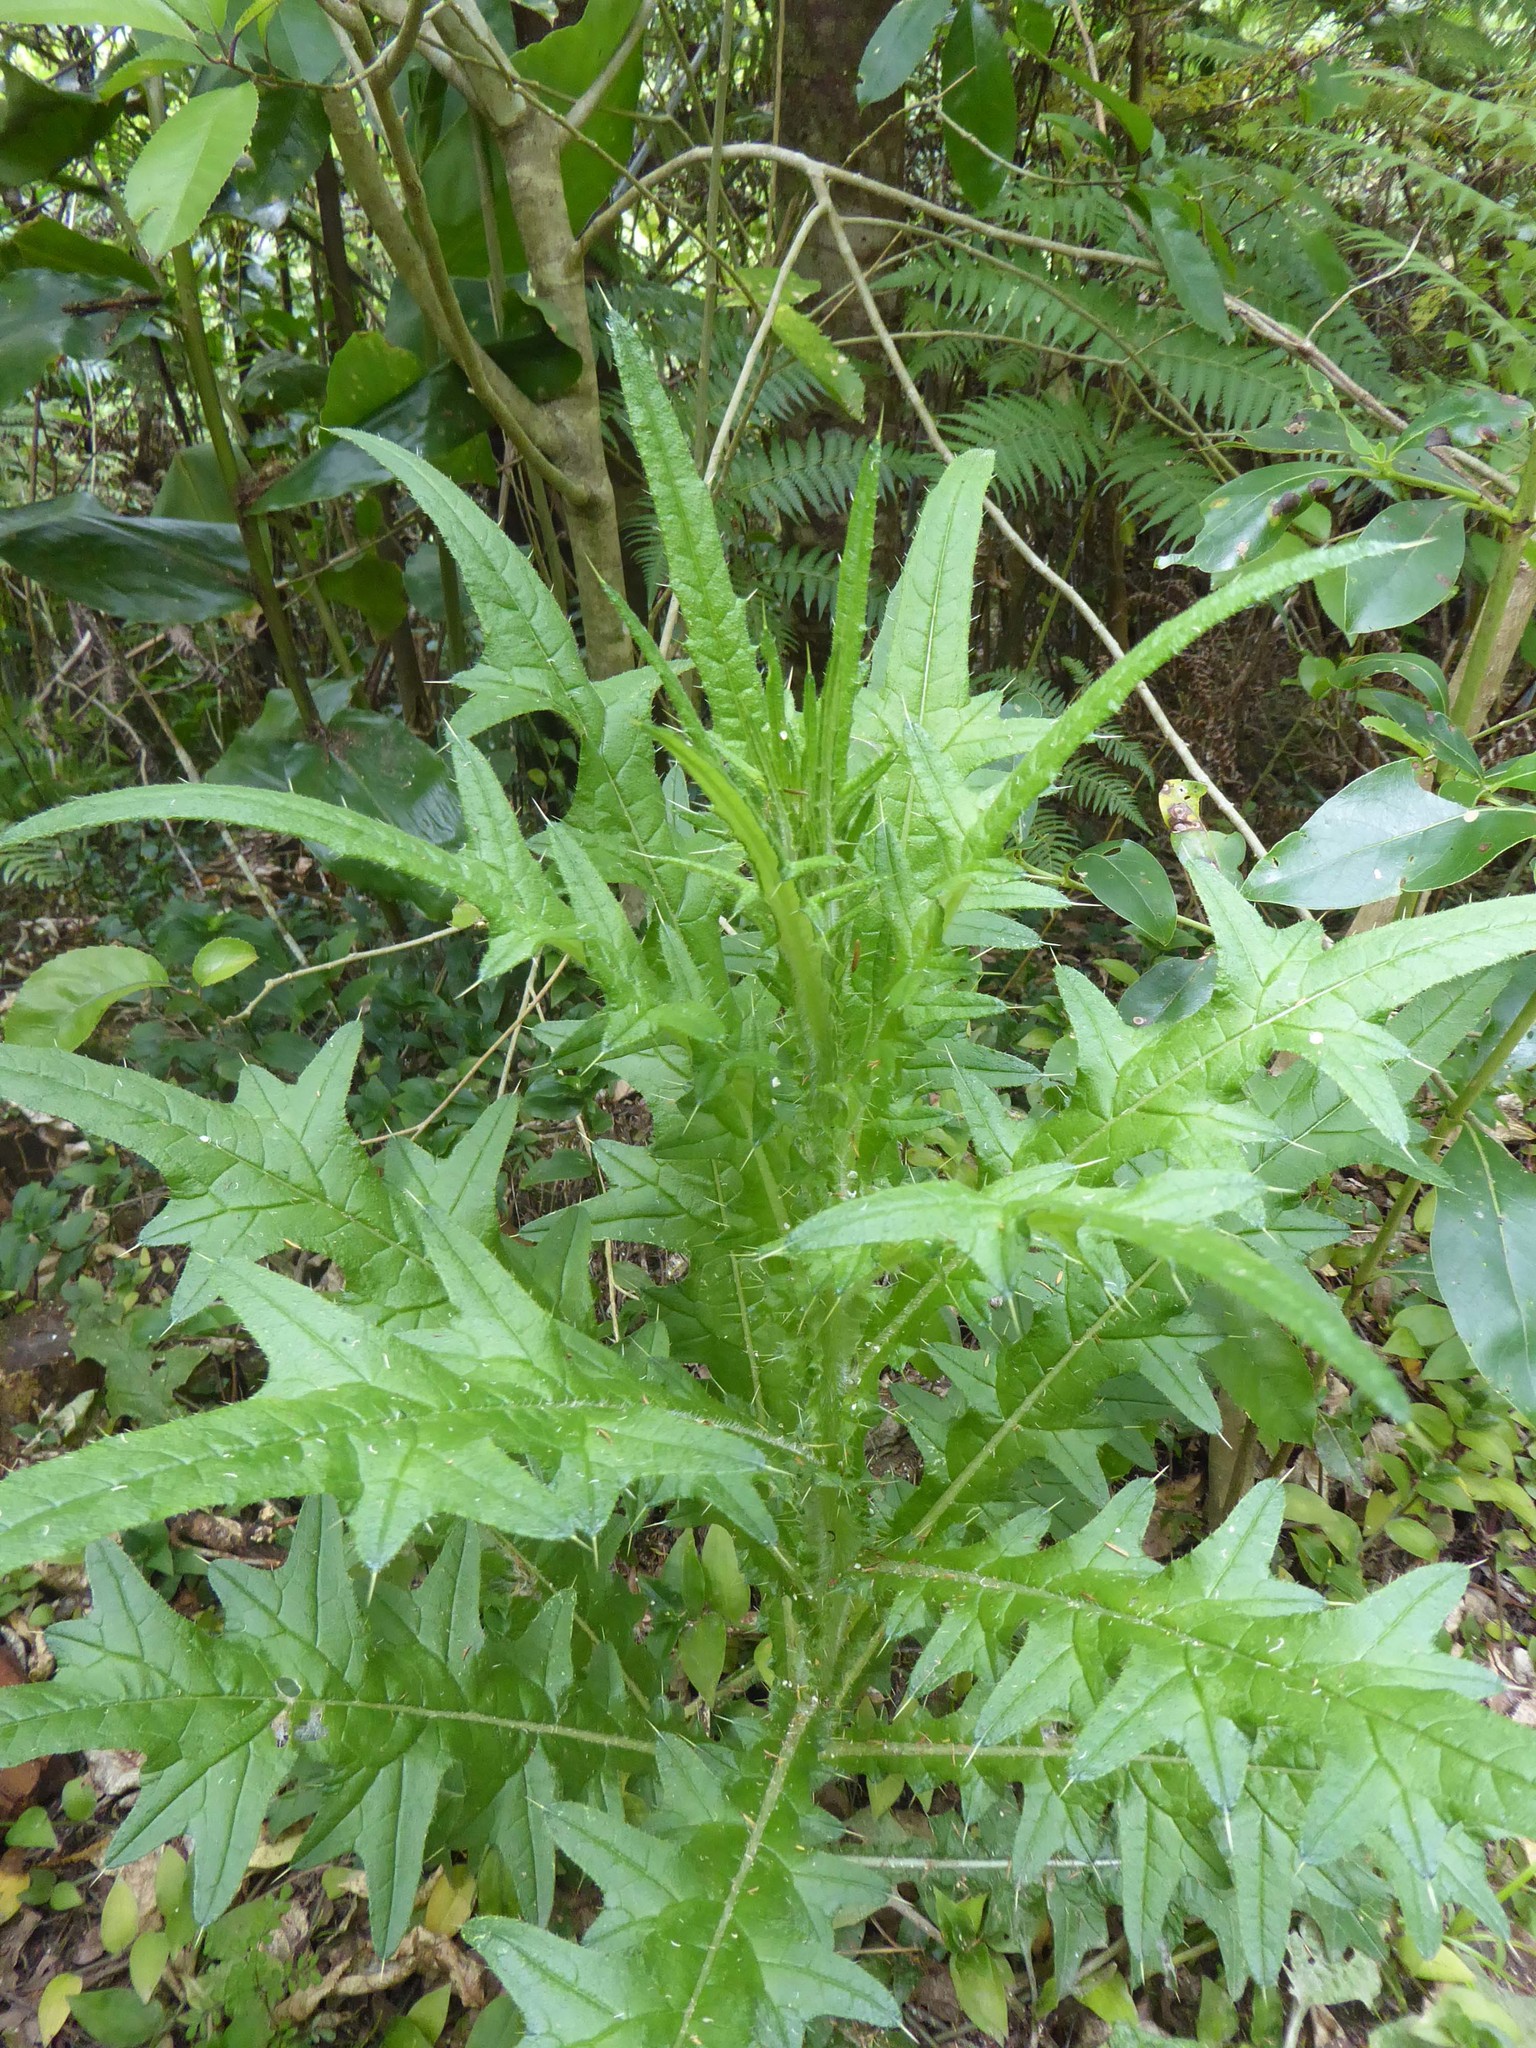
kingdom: Plantae
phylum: Tracheophyta
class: Magnoliopsida
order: Asterales
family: Asteraceae
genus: Cirsium
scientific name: Cirsium vulgare
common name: Bull thistle
